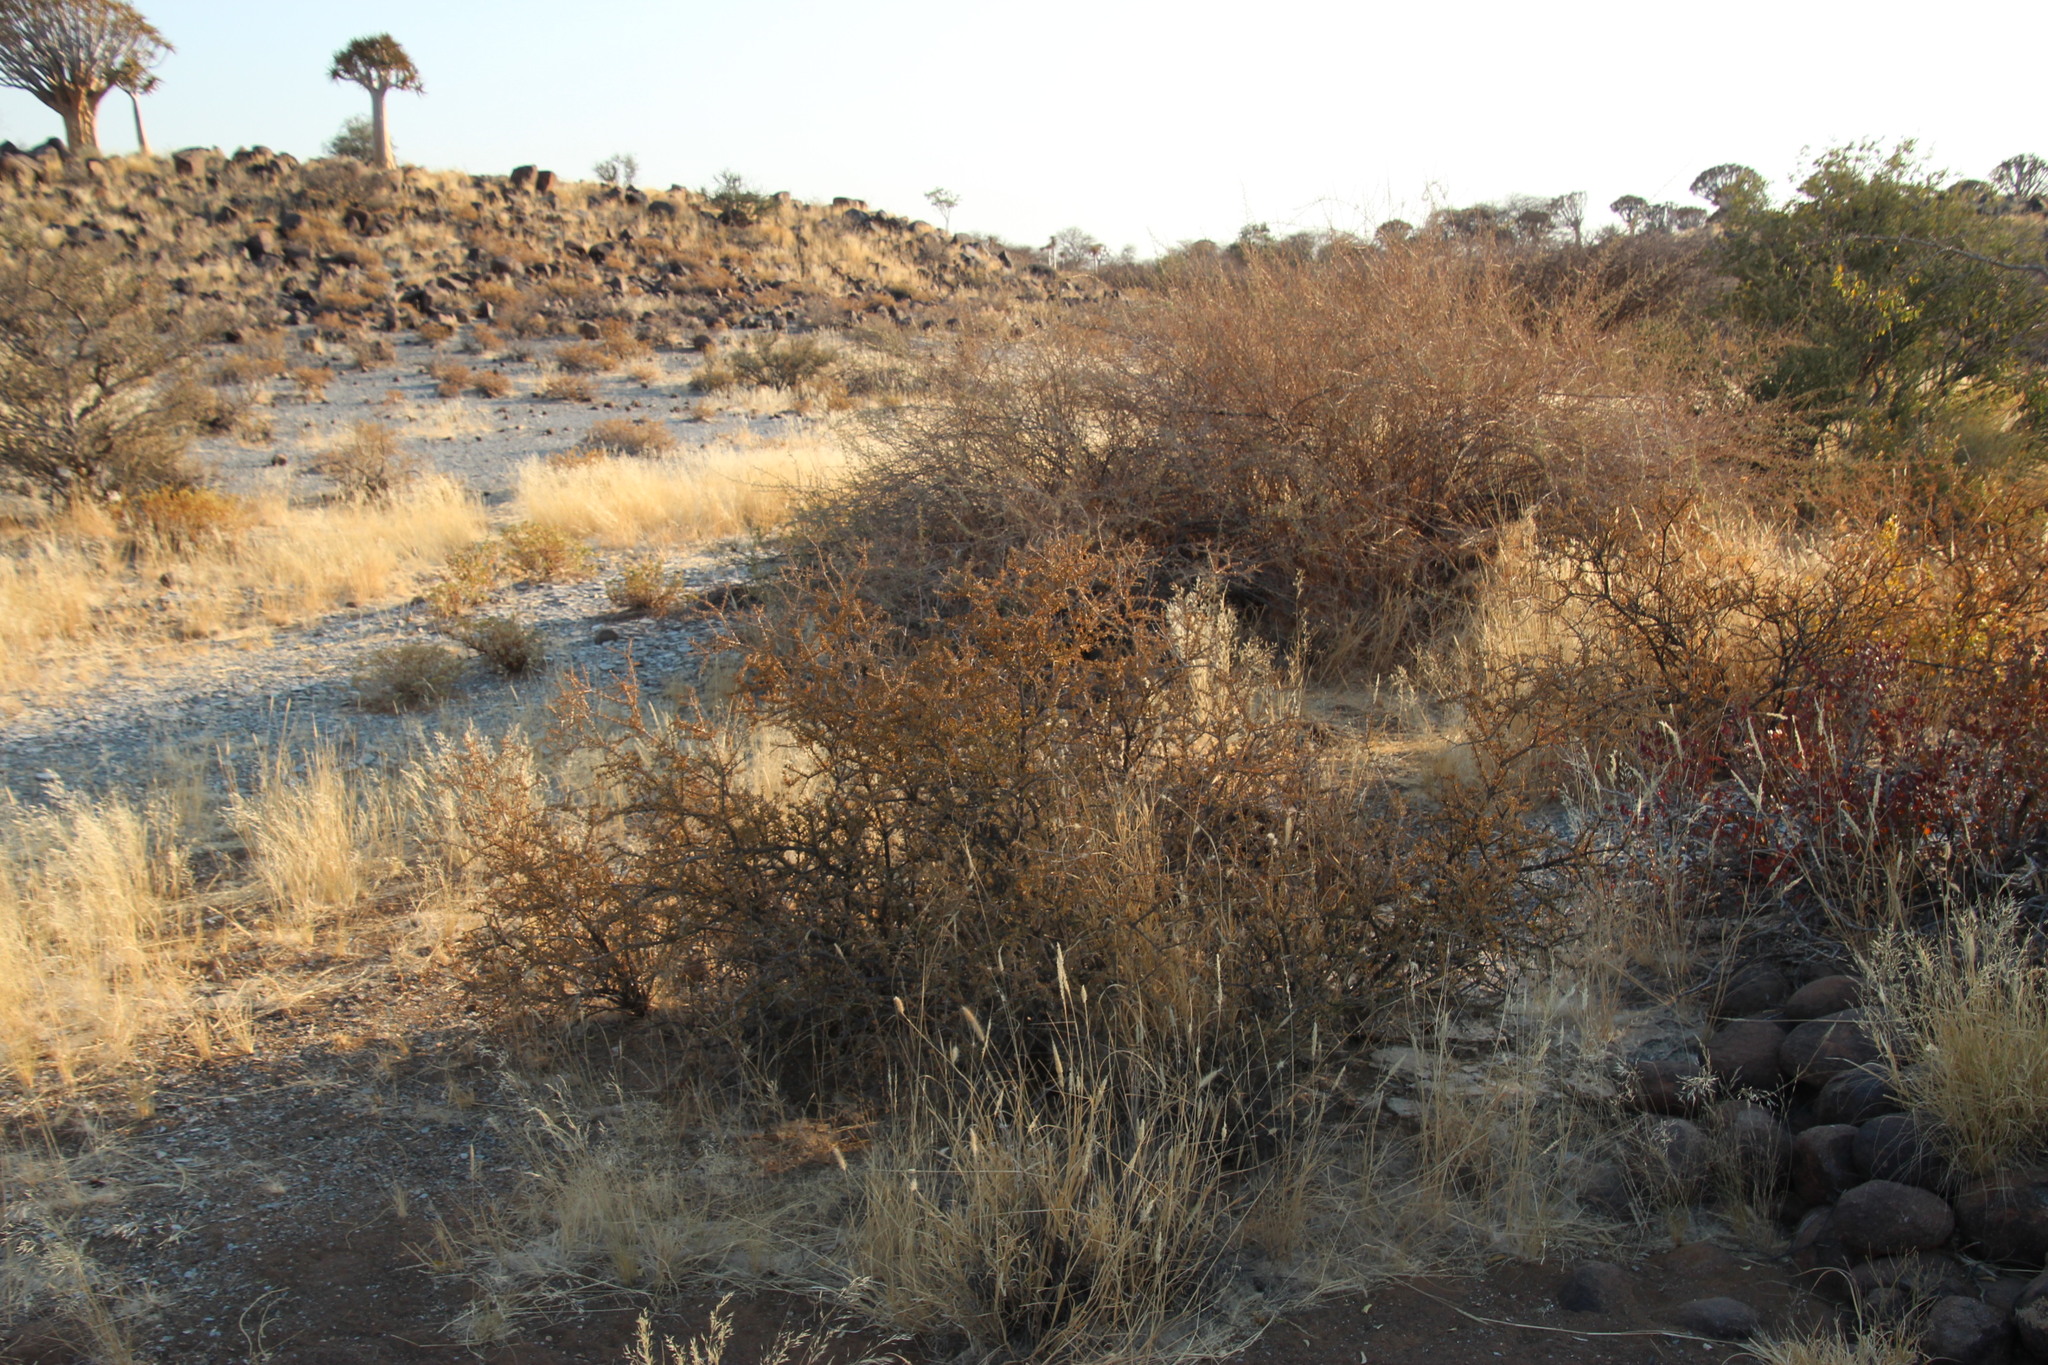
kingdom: Plantae
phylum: Tracheophyta
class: Magnoliopsida
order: Lamiales
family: Bignoniaceae
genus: Rhigozum
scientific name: Rhigozum trichotomum
